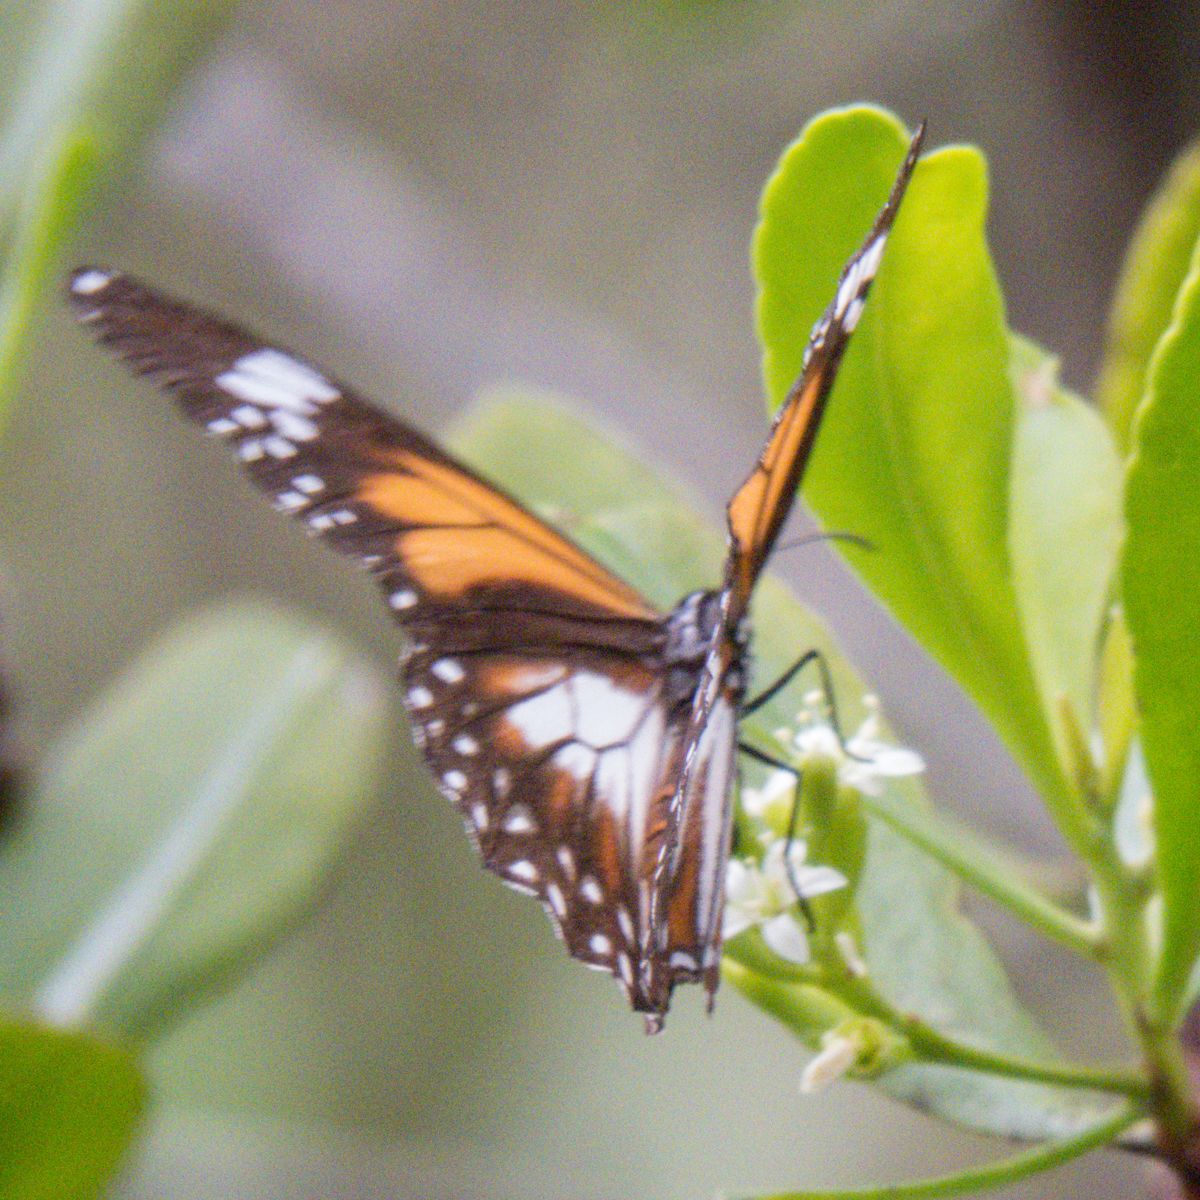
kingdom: Animalia
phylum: Arthropoda
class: Insecta
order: Lepidoptera
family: Nymphalidae
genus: Danaus
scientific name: Danaus affinis
